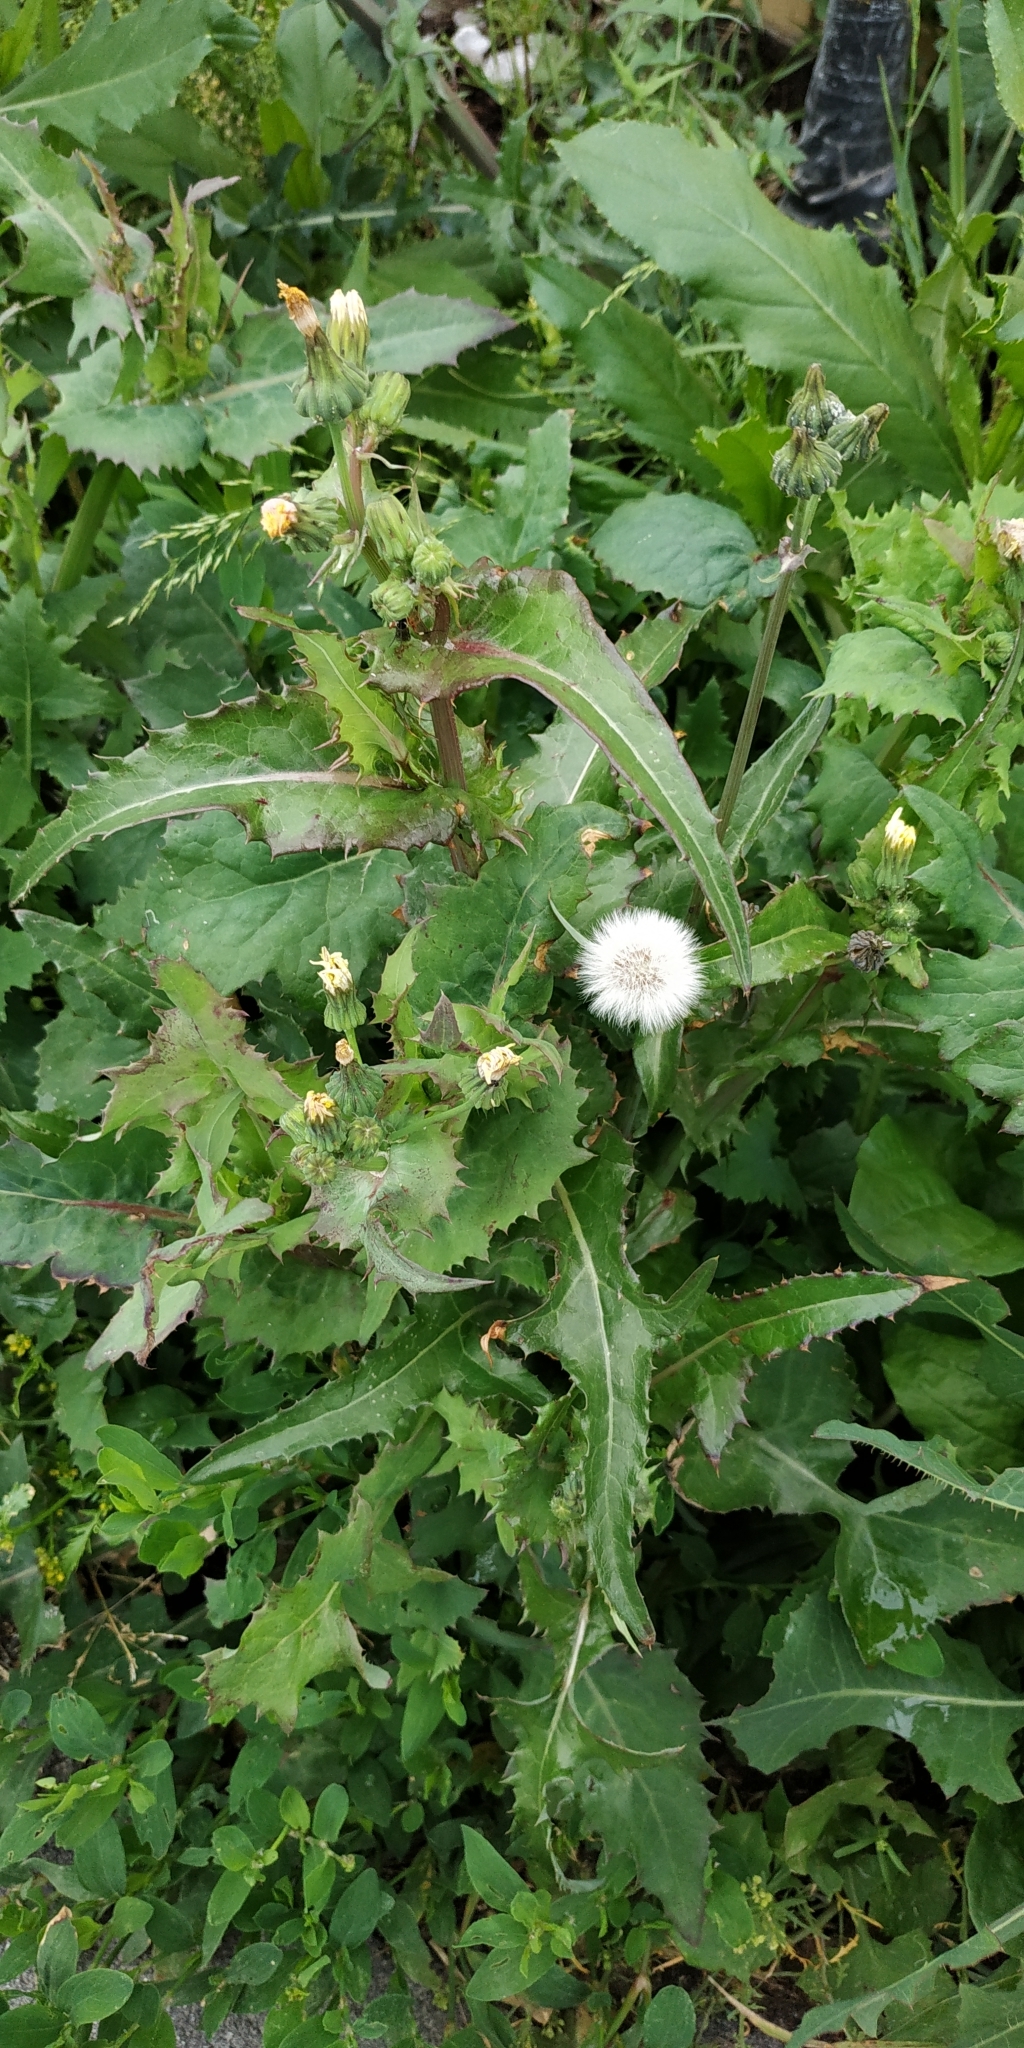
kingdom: Plantae
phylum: Tracheophyta
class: Magnoliopsida
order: Asterales
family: Asteraceae
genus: Sonchus
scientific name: Sonchus asper
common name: Prickly sow-thistle
